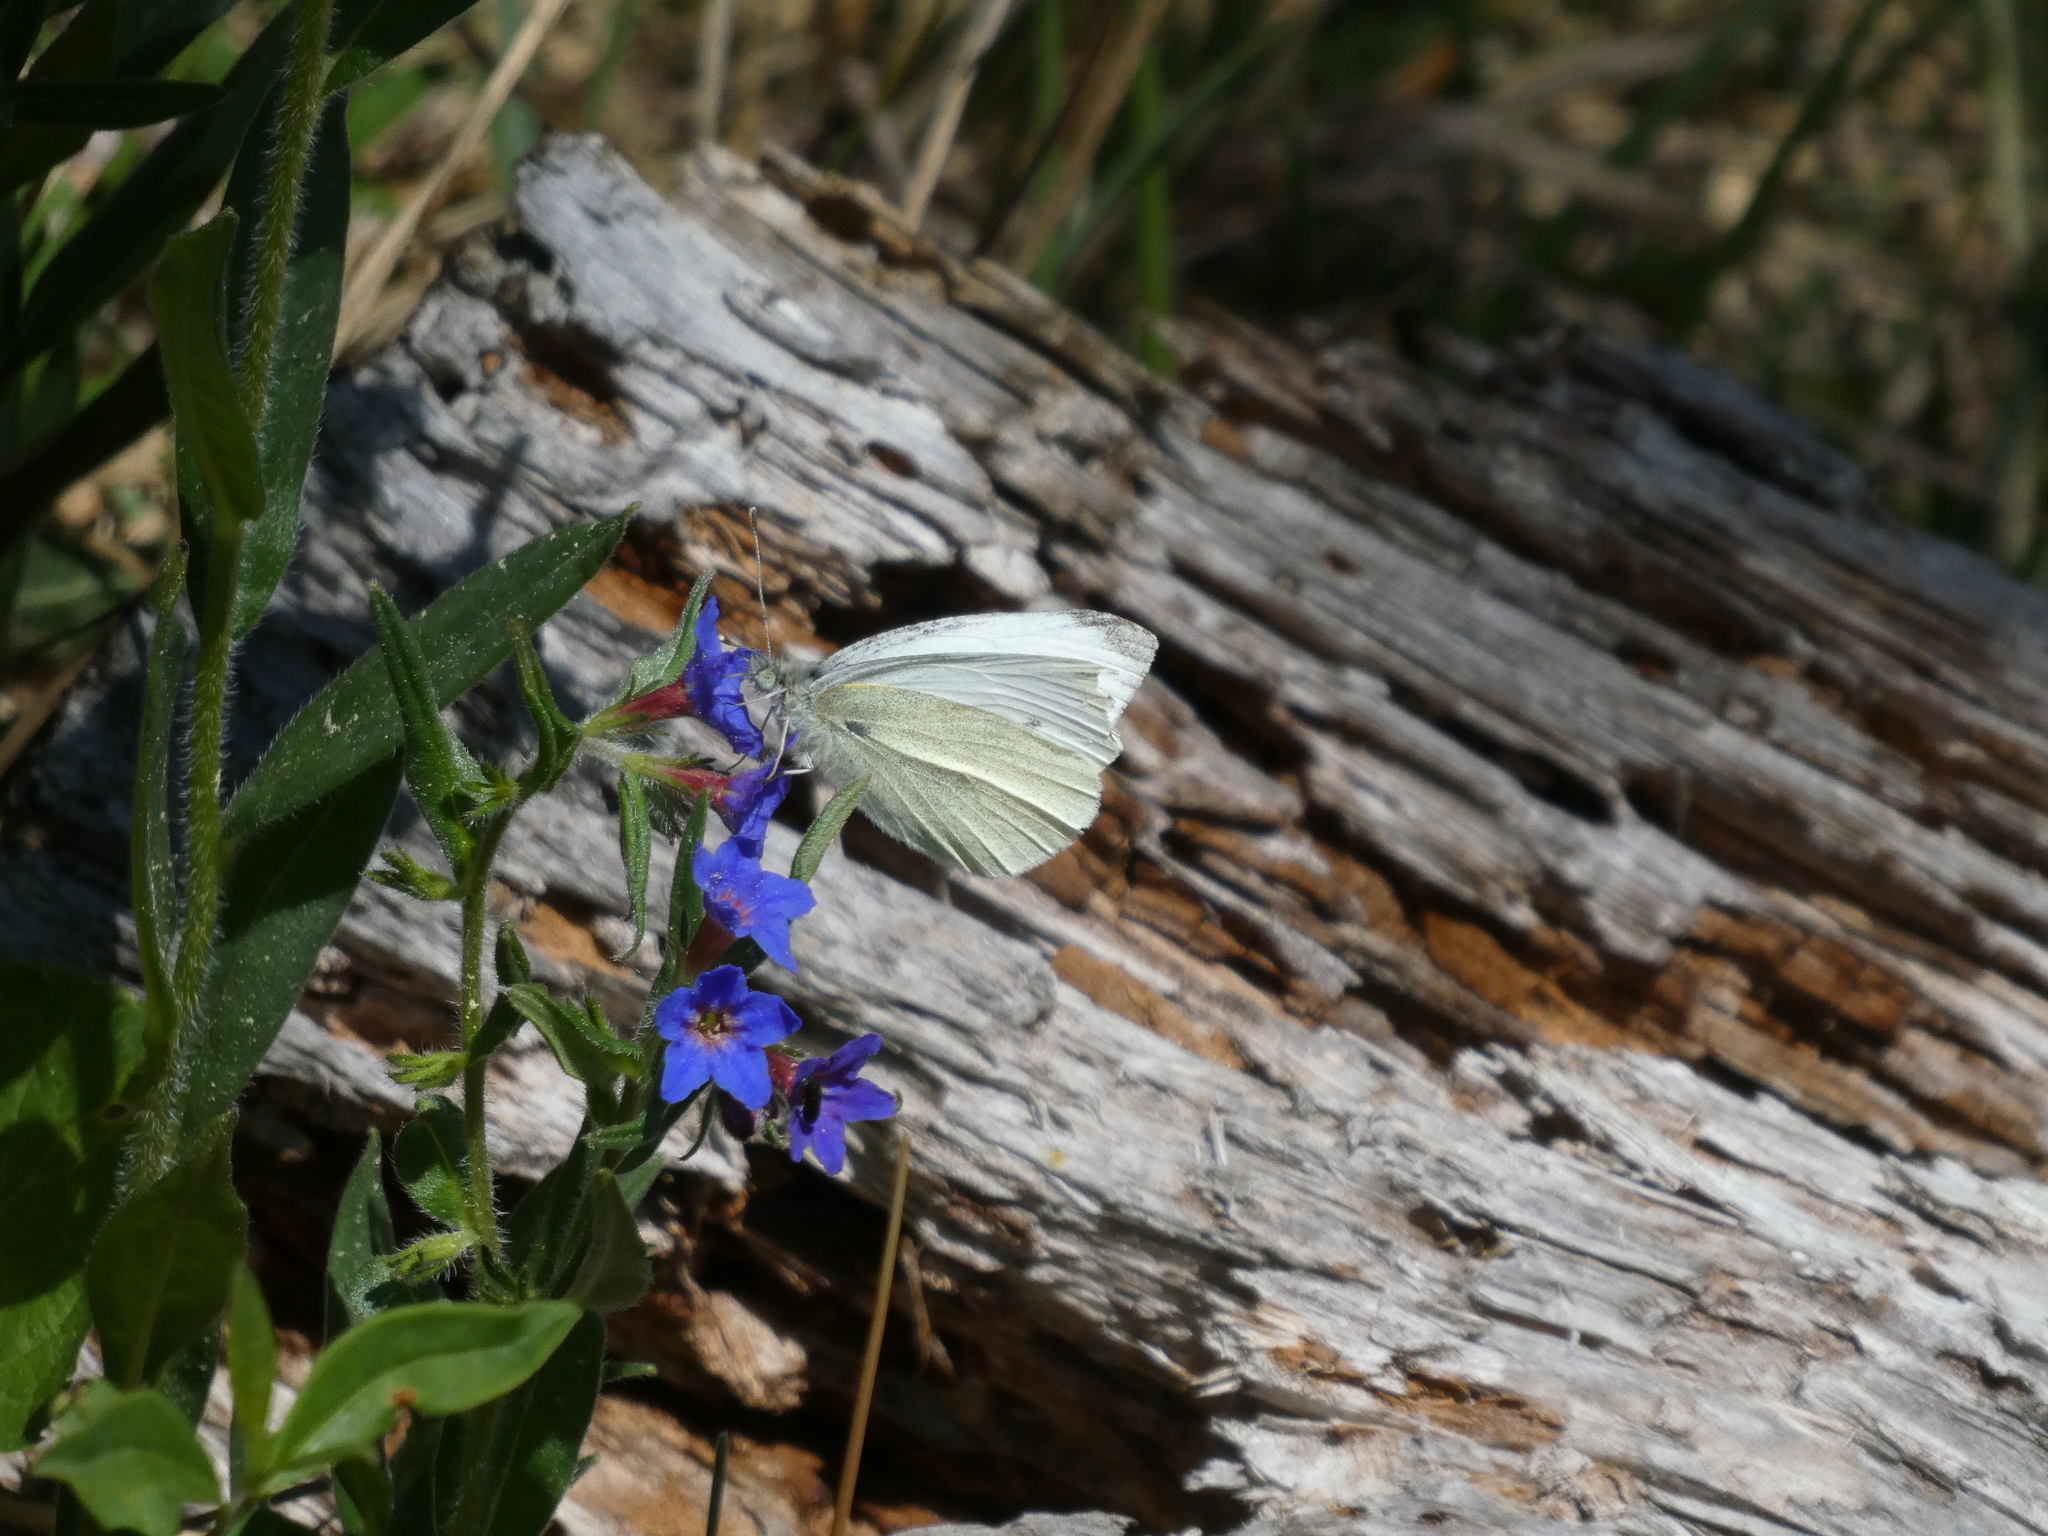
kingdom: Animalia
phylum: Arthropoda
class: Insecta
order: Lepidoptera
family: Pieridae
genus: Pieris
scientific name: Pieris rapae
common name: Small white
